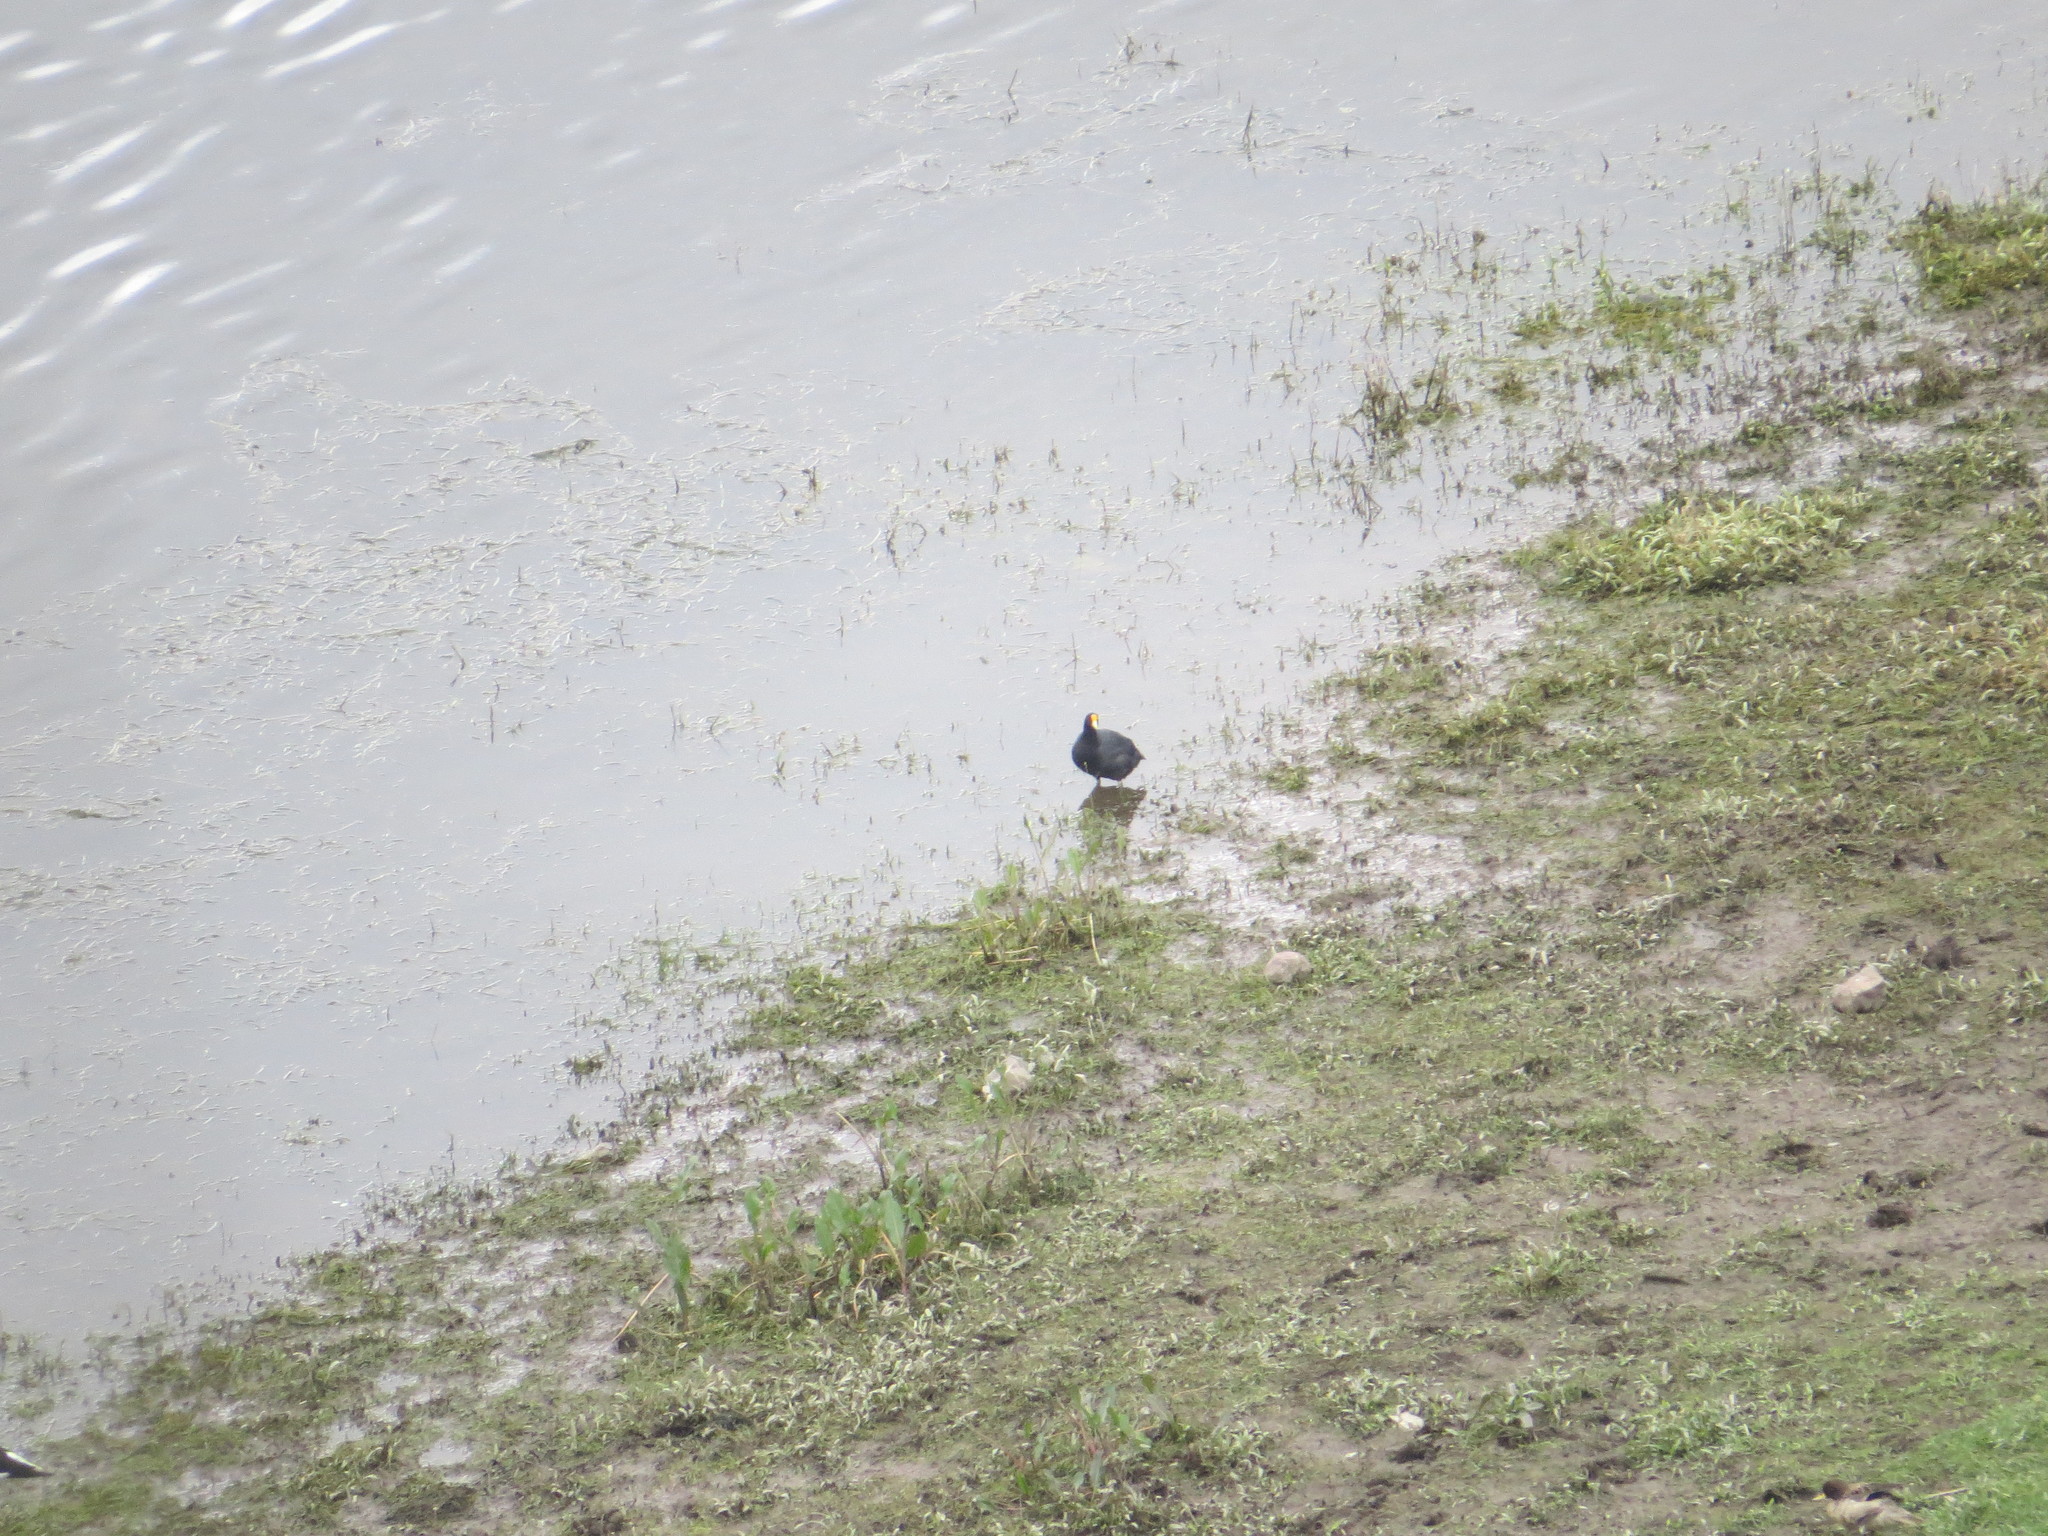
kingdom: Animalia
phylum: Chordata
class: Aves
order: Gruiformes
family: Rallidae
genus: Fulica
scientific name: Fulica leucoptera
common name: White-winged coot
